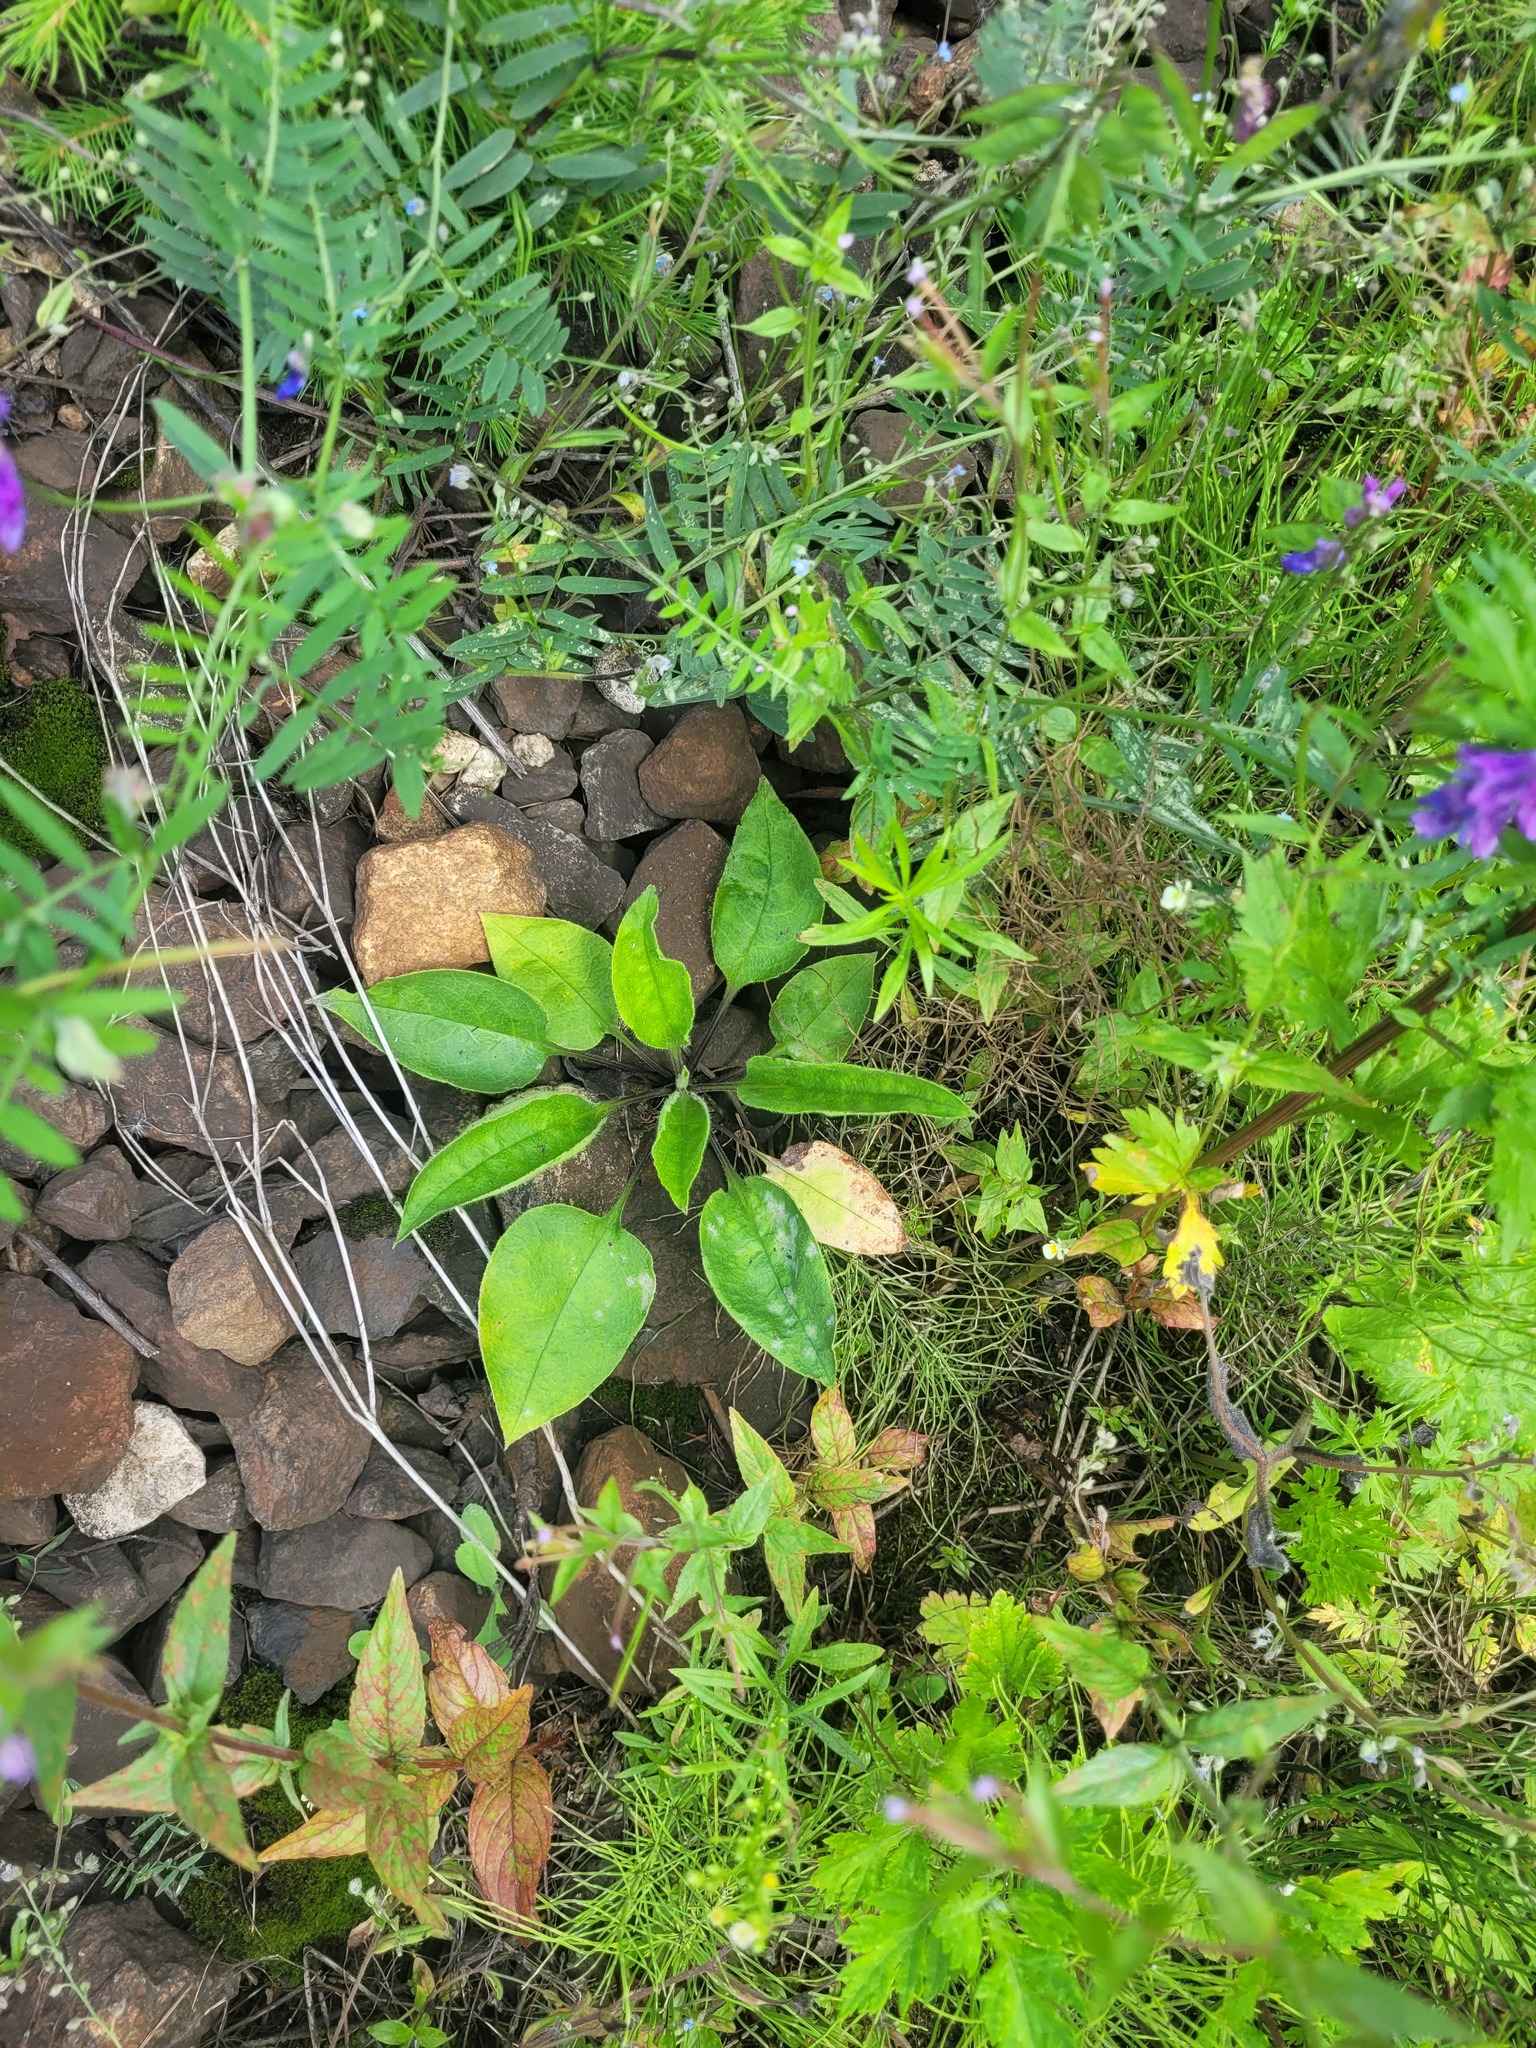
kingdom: Plantae
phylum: Tracheophyta
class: Magnoliopsida
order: Boraginales
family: Boraginaceae
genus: Pulmonaria
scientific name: Pulmonaria obscura
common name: Suffolk lungwort
